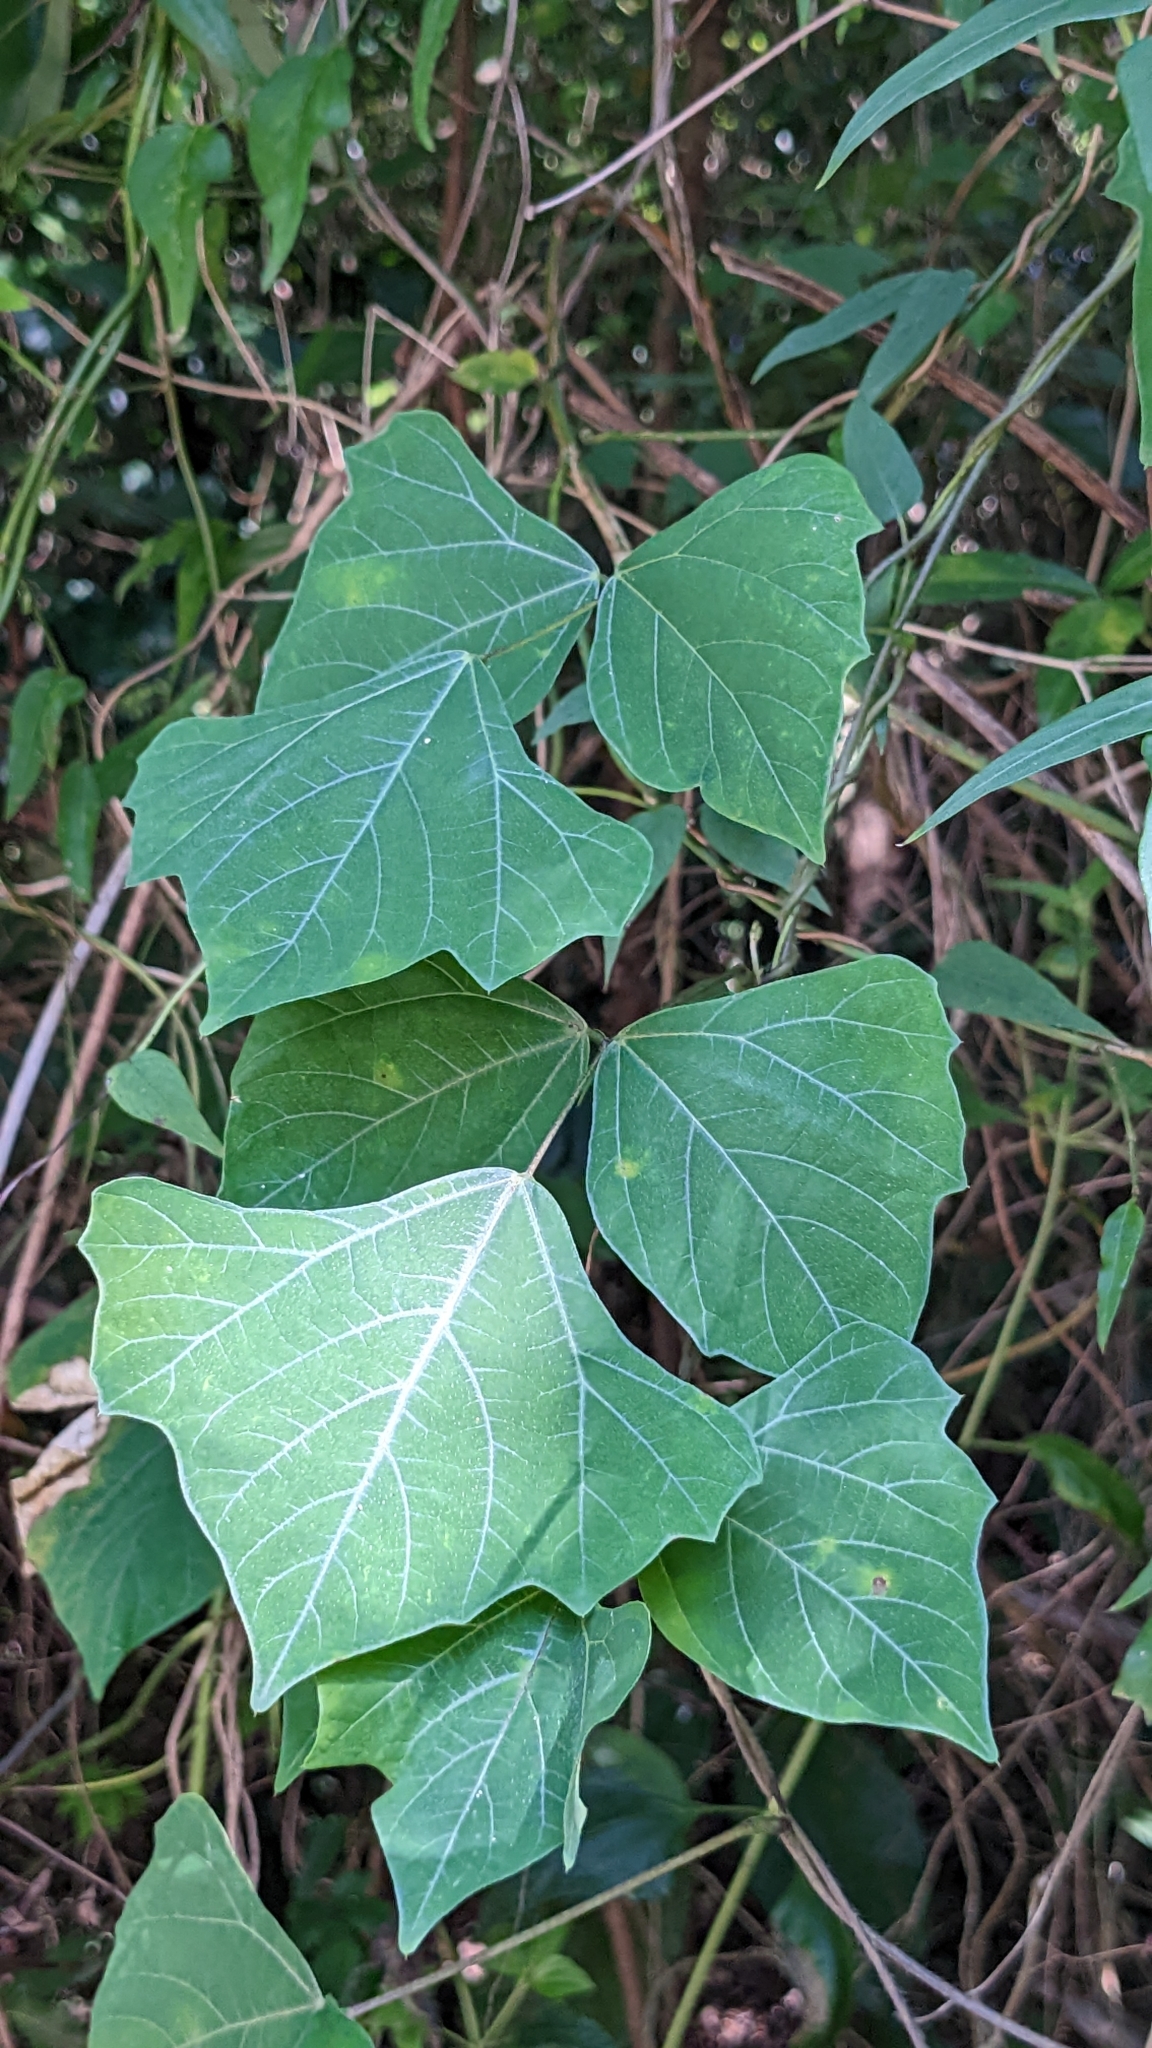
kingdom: Plantae
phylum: Tracheophyta
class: Magnoliopsida
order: Fabales
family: Fabaceae
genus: Pachyrhizus
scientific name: Pachyrhizus erosus
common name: Yam bean
